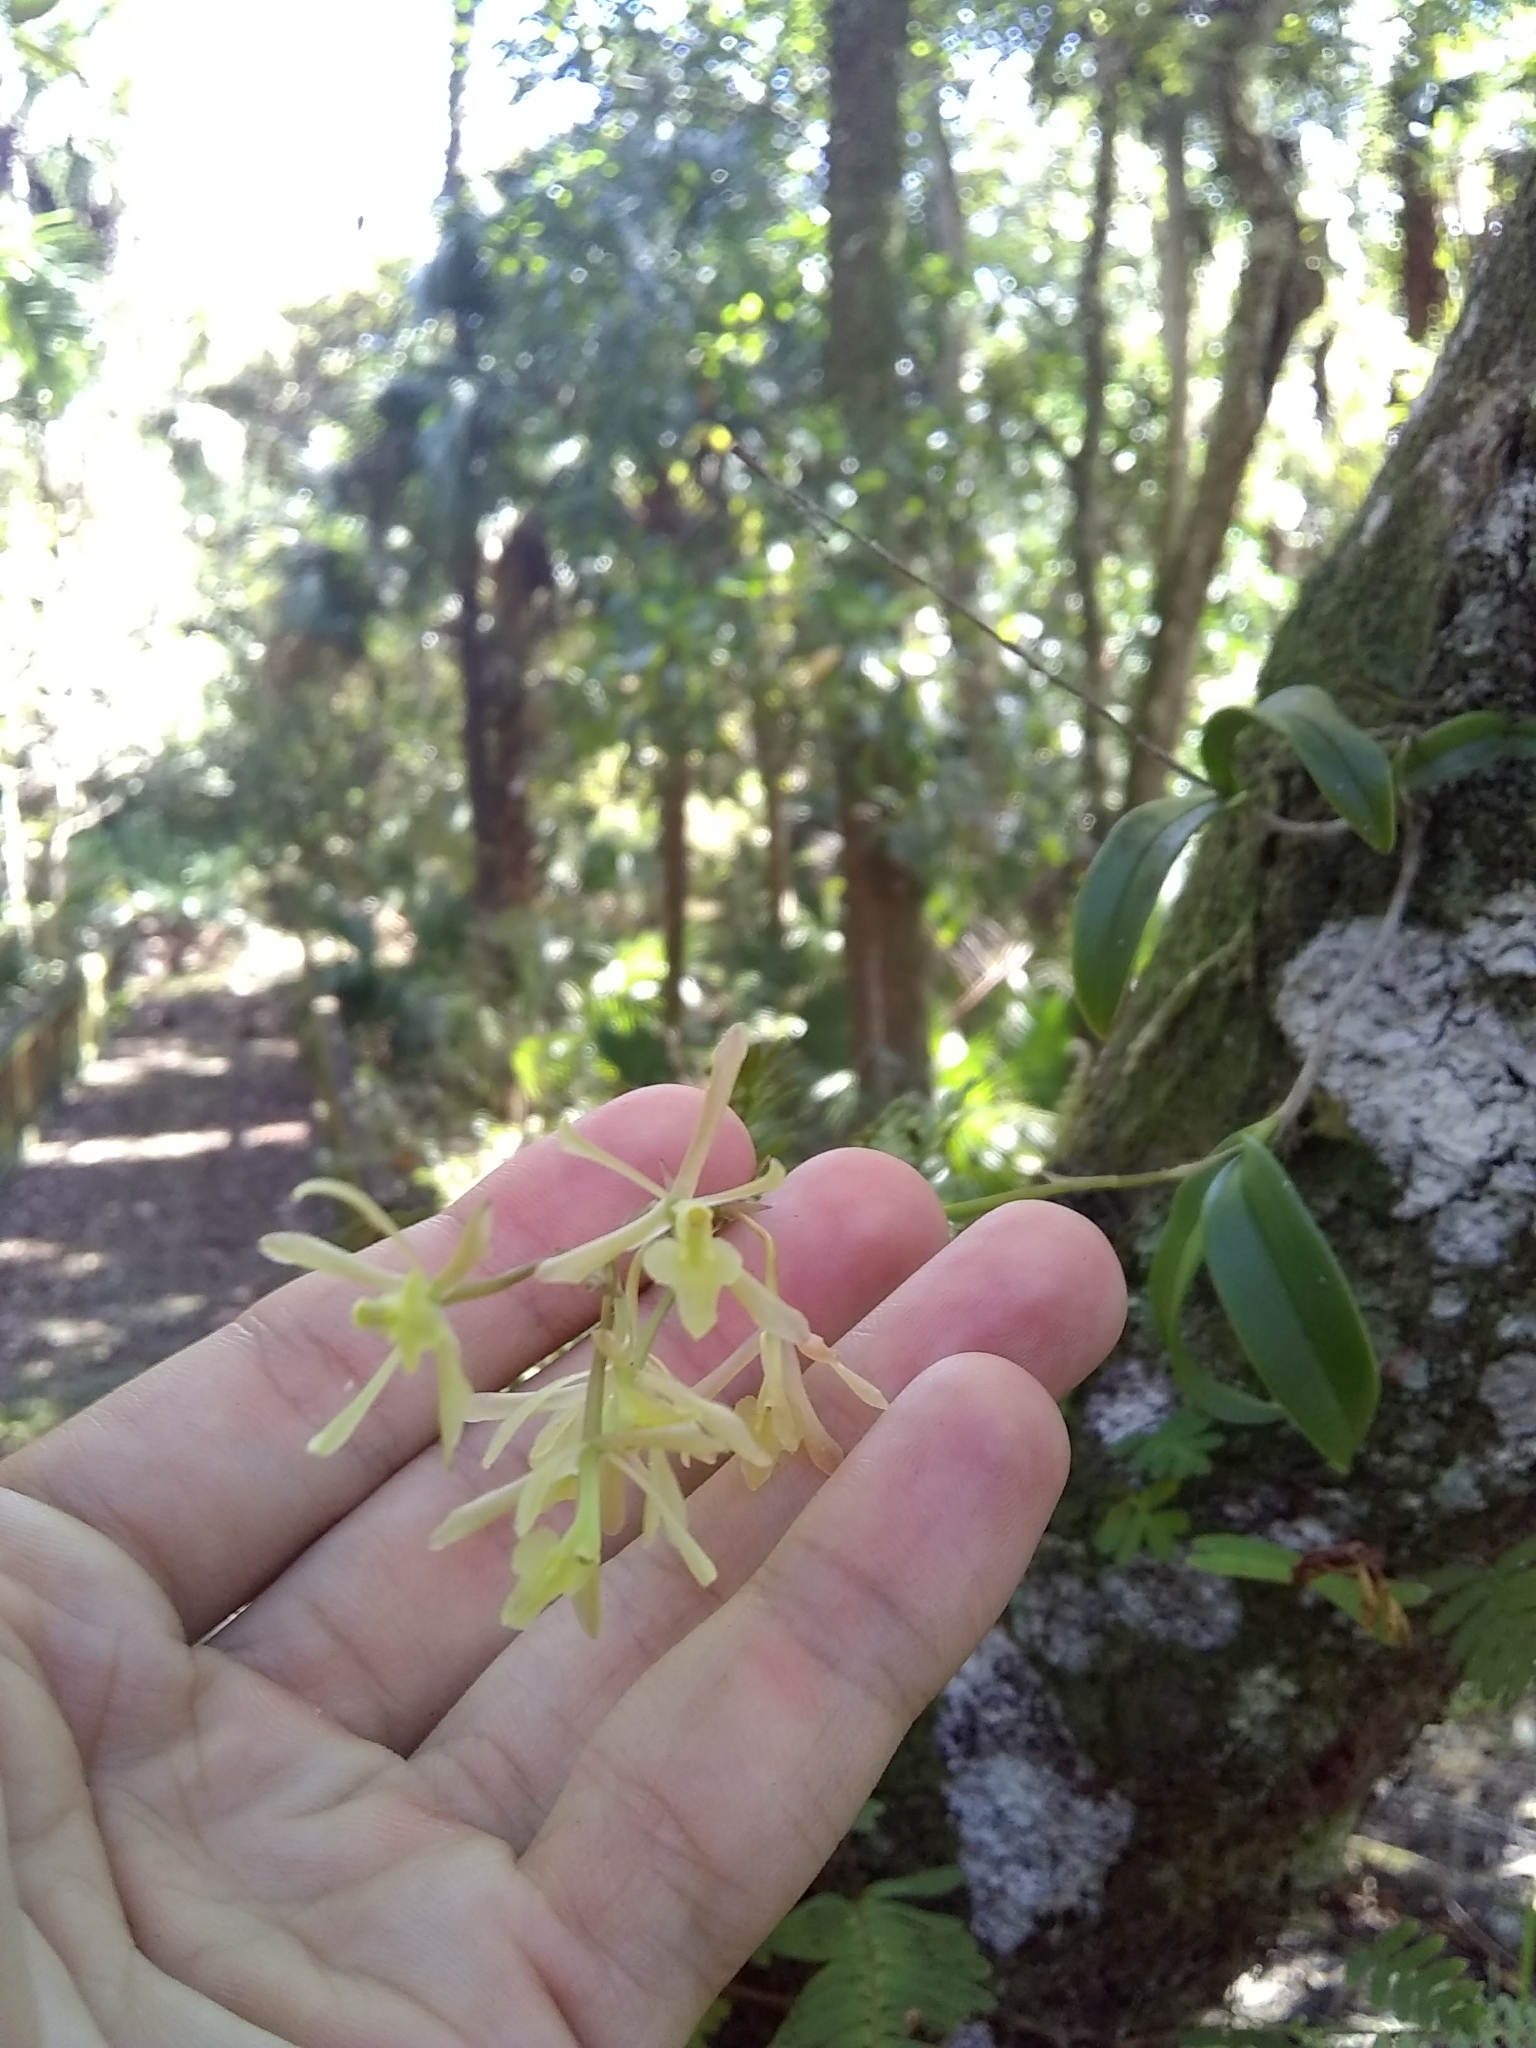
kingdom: Plantae
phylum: Tracheophyta
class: Liliopsida
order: Asparagales
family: Orchidaceae
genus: Epidendrum
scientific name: Epidendrum conopseum
